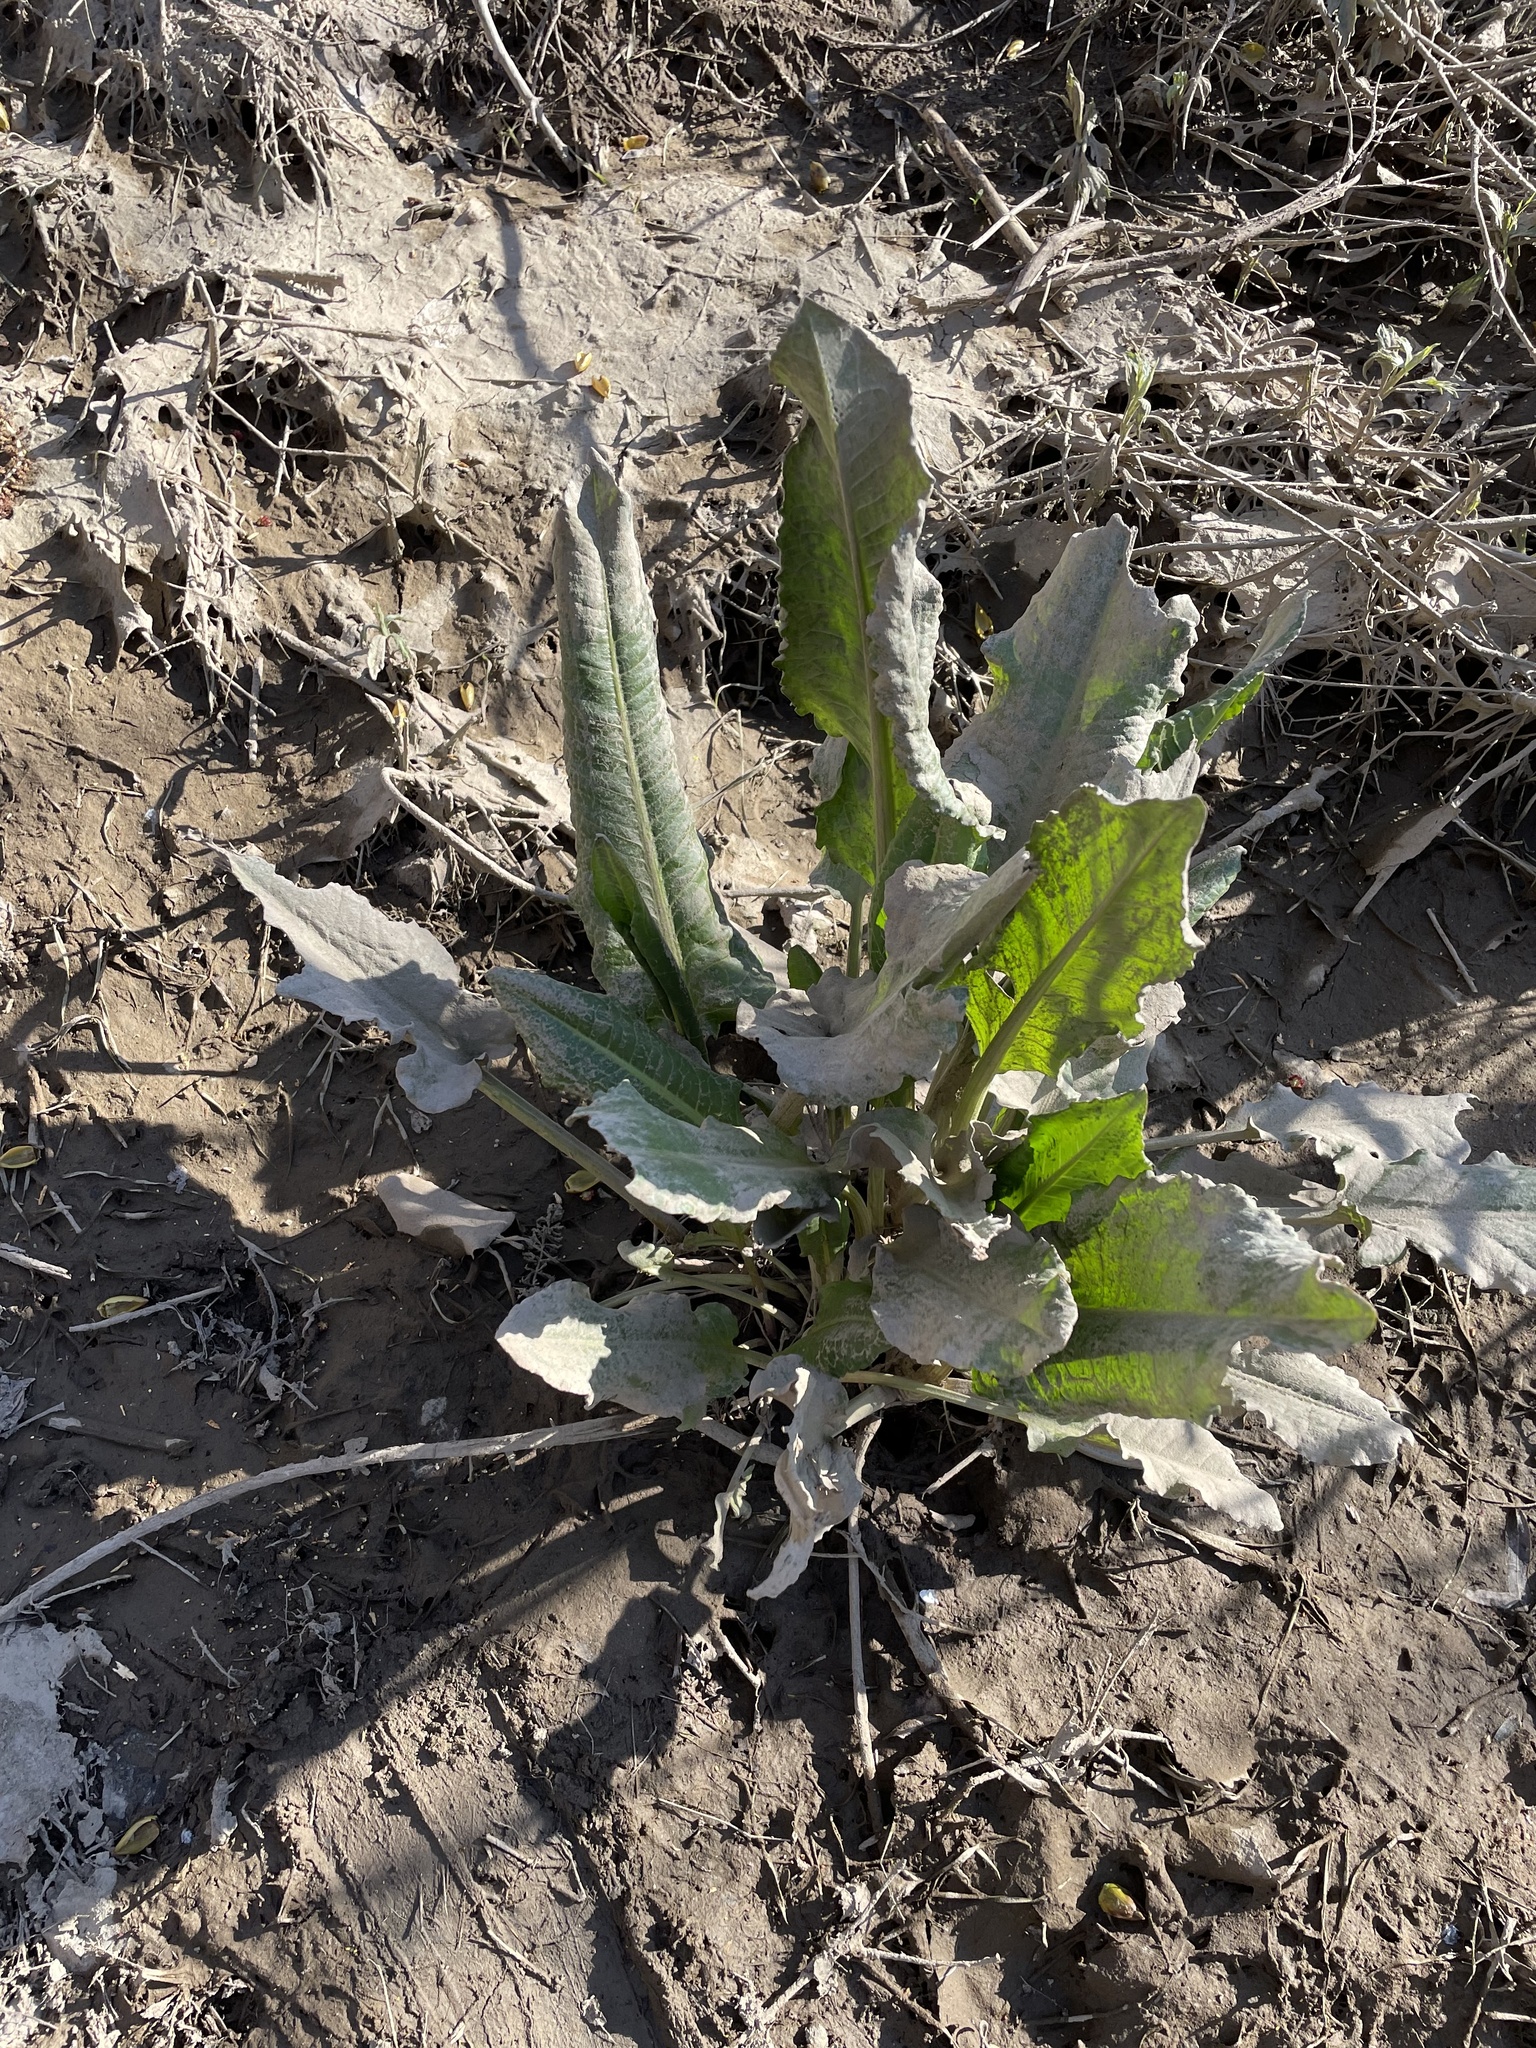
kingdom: Plantae
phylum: Tracheophyta
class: Magnoliopsida
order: Caryophyllales
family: Polygonaceae
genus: Rumex
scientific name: Rumex crispus
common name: Curled dock
